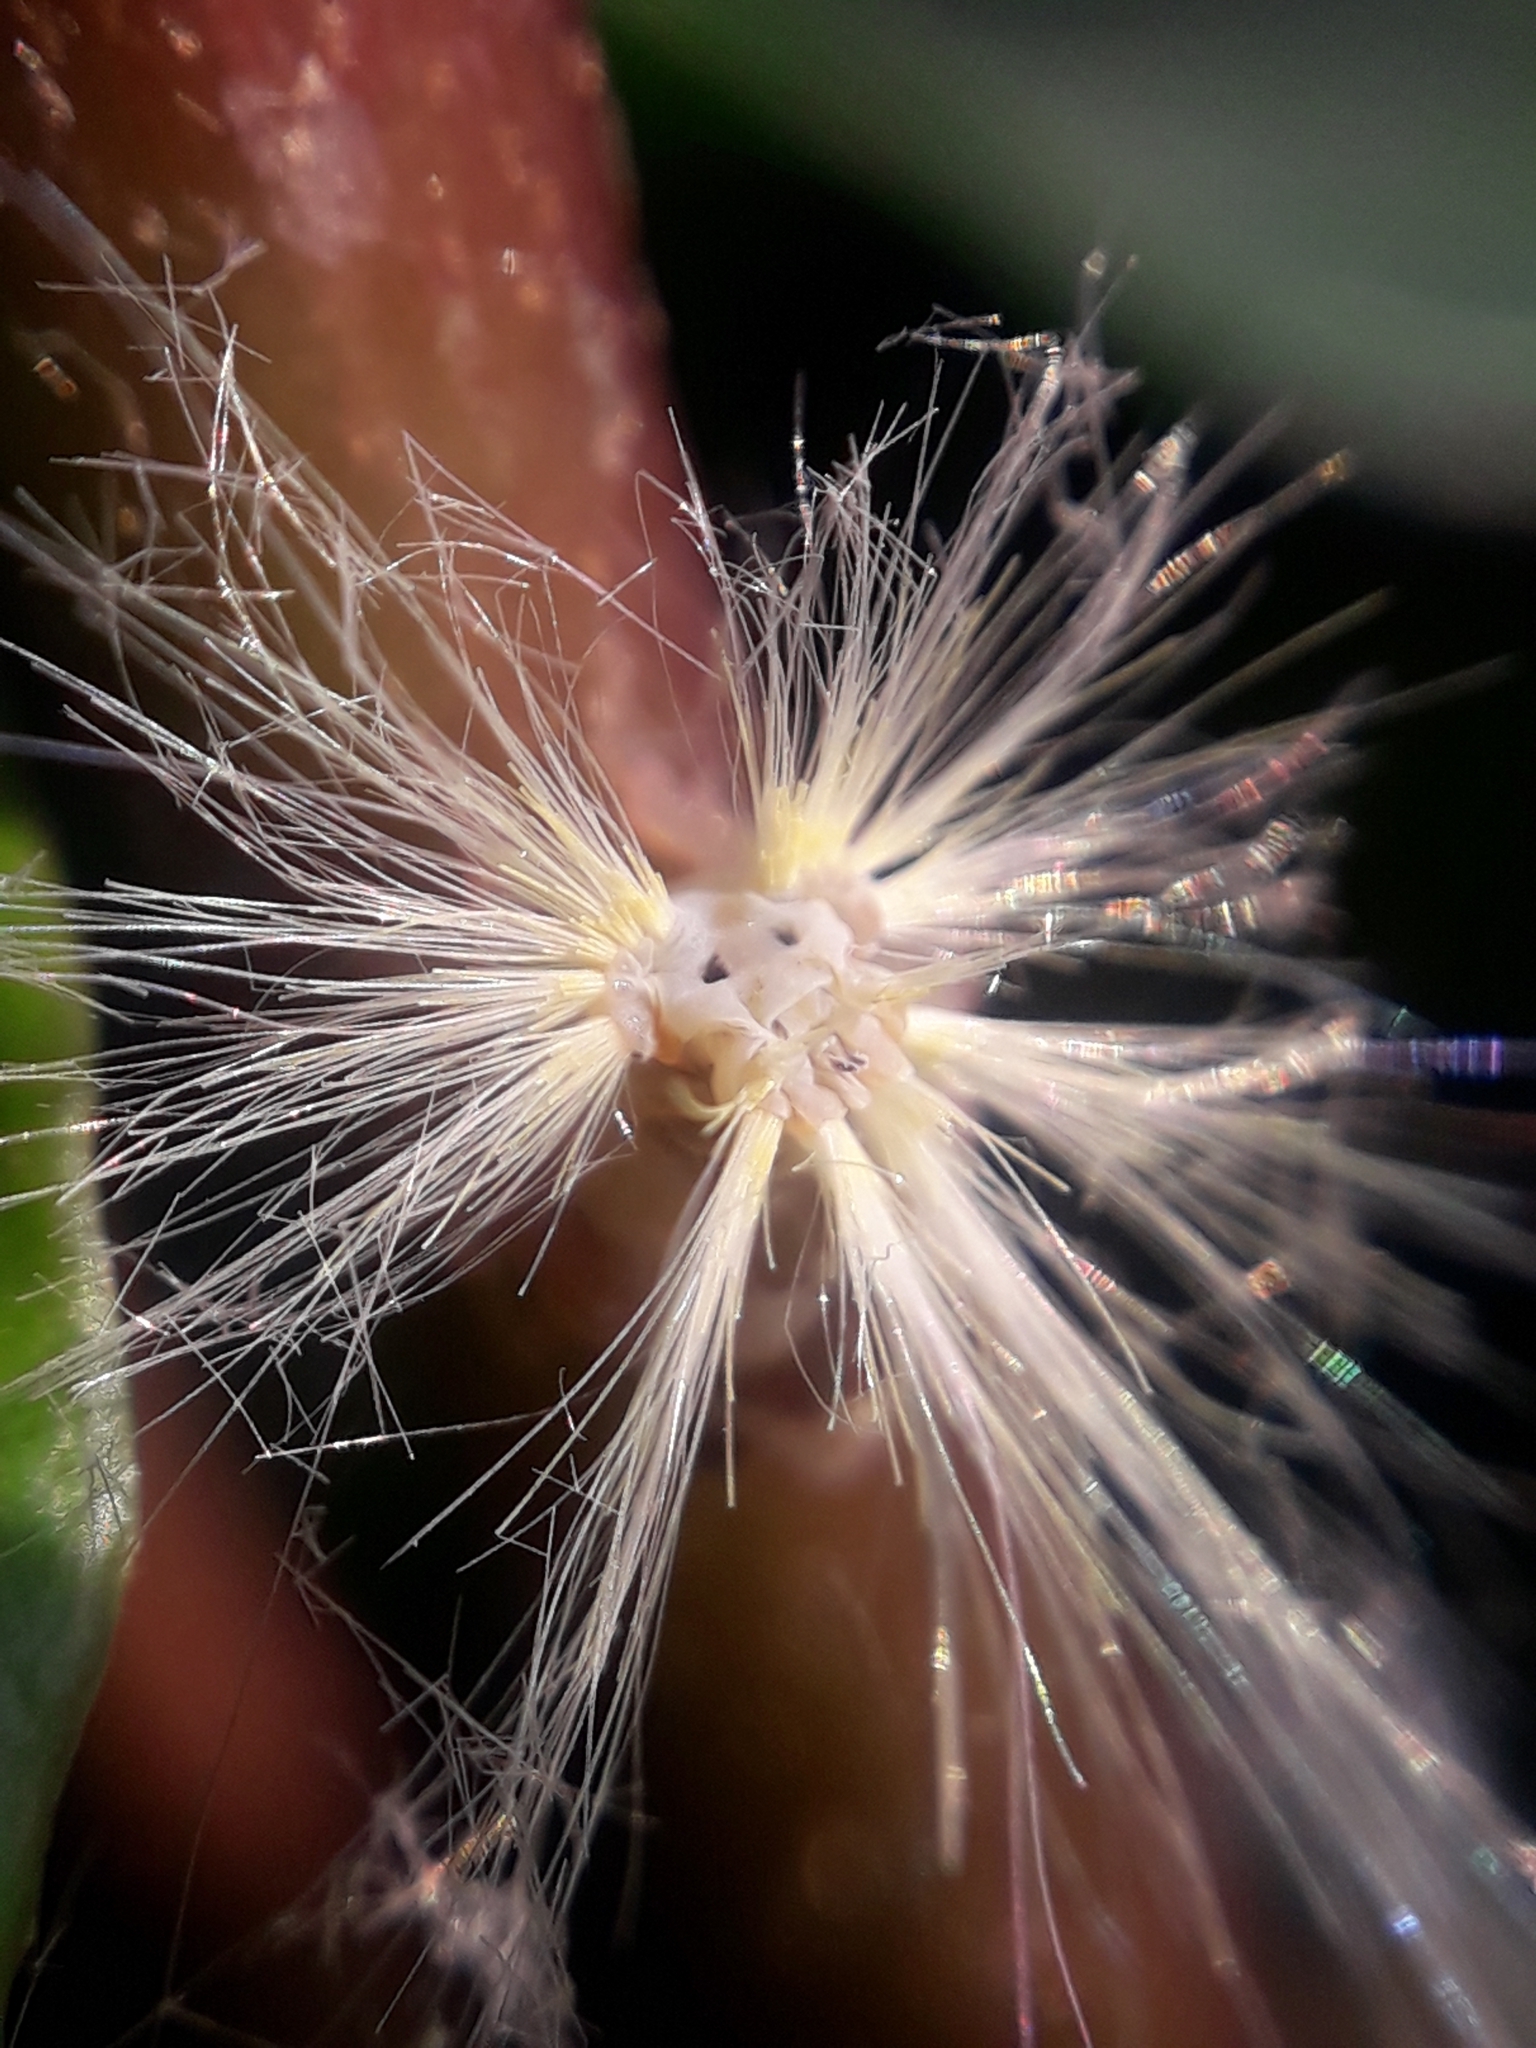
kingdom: Animalia
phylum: Arthropoda
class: Insecta
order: Hemiptera
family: Ricaniidae
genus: Orosanga
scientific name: Orosanga japonica
